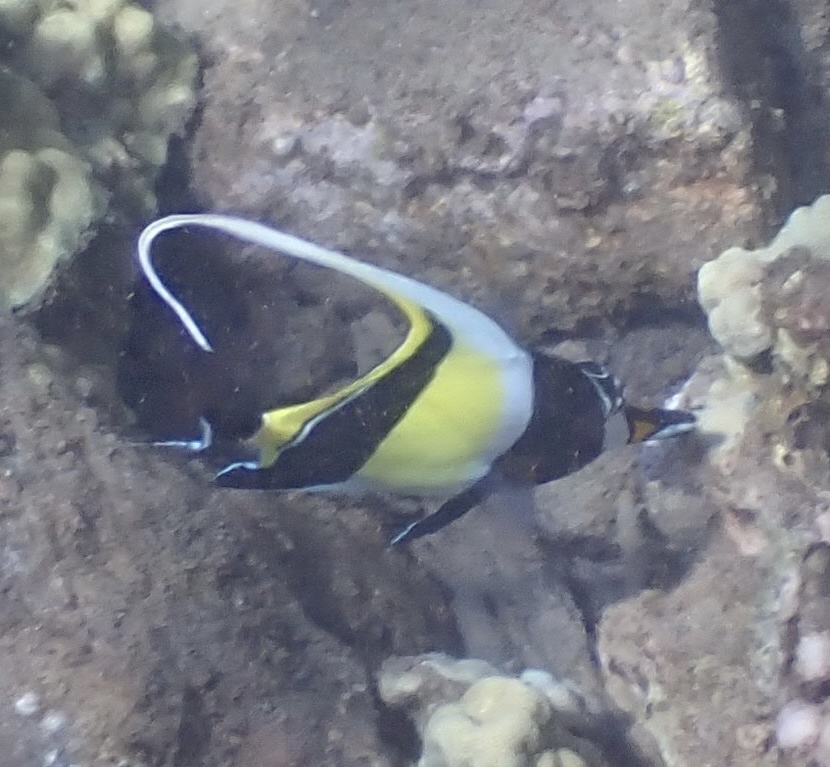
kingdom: Animalia
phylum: Chordata
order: Perciformes
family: Zanclidae
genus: Zanclus
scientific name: Zanclus cornutus
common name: Moorish idol
